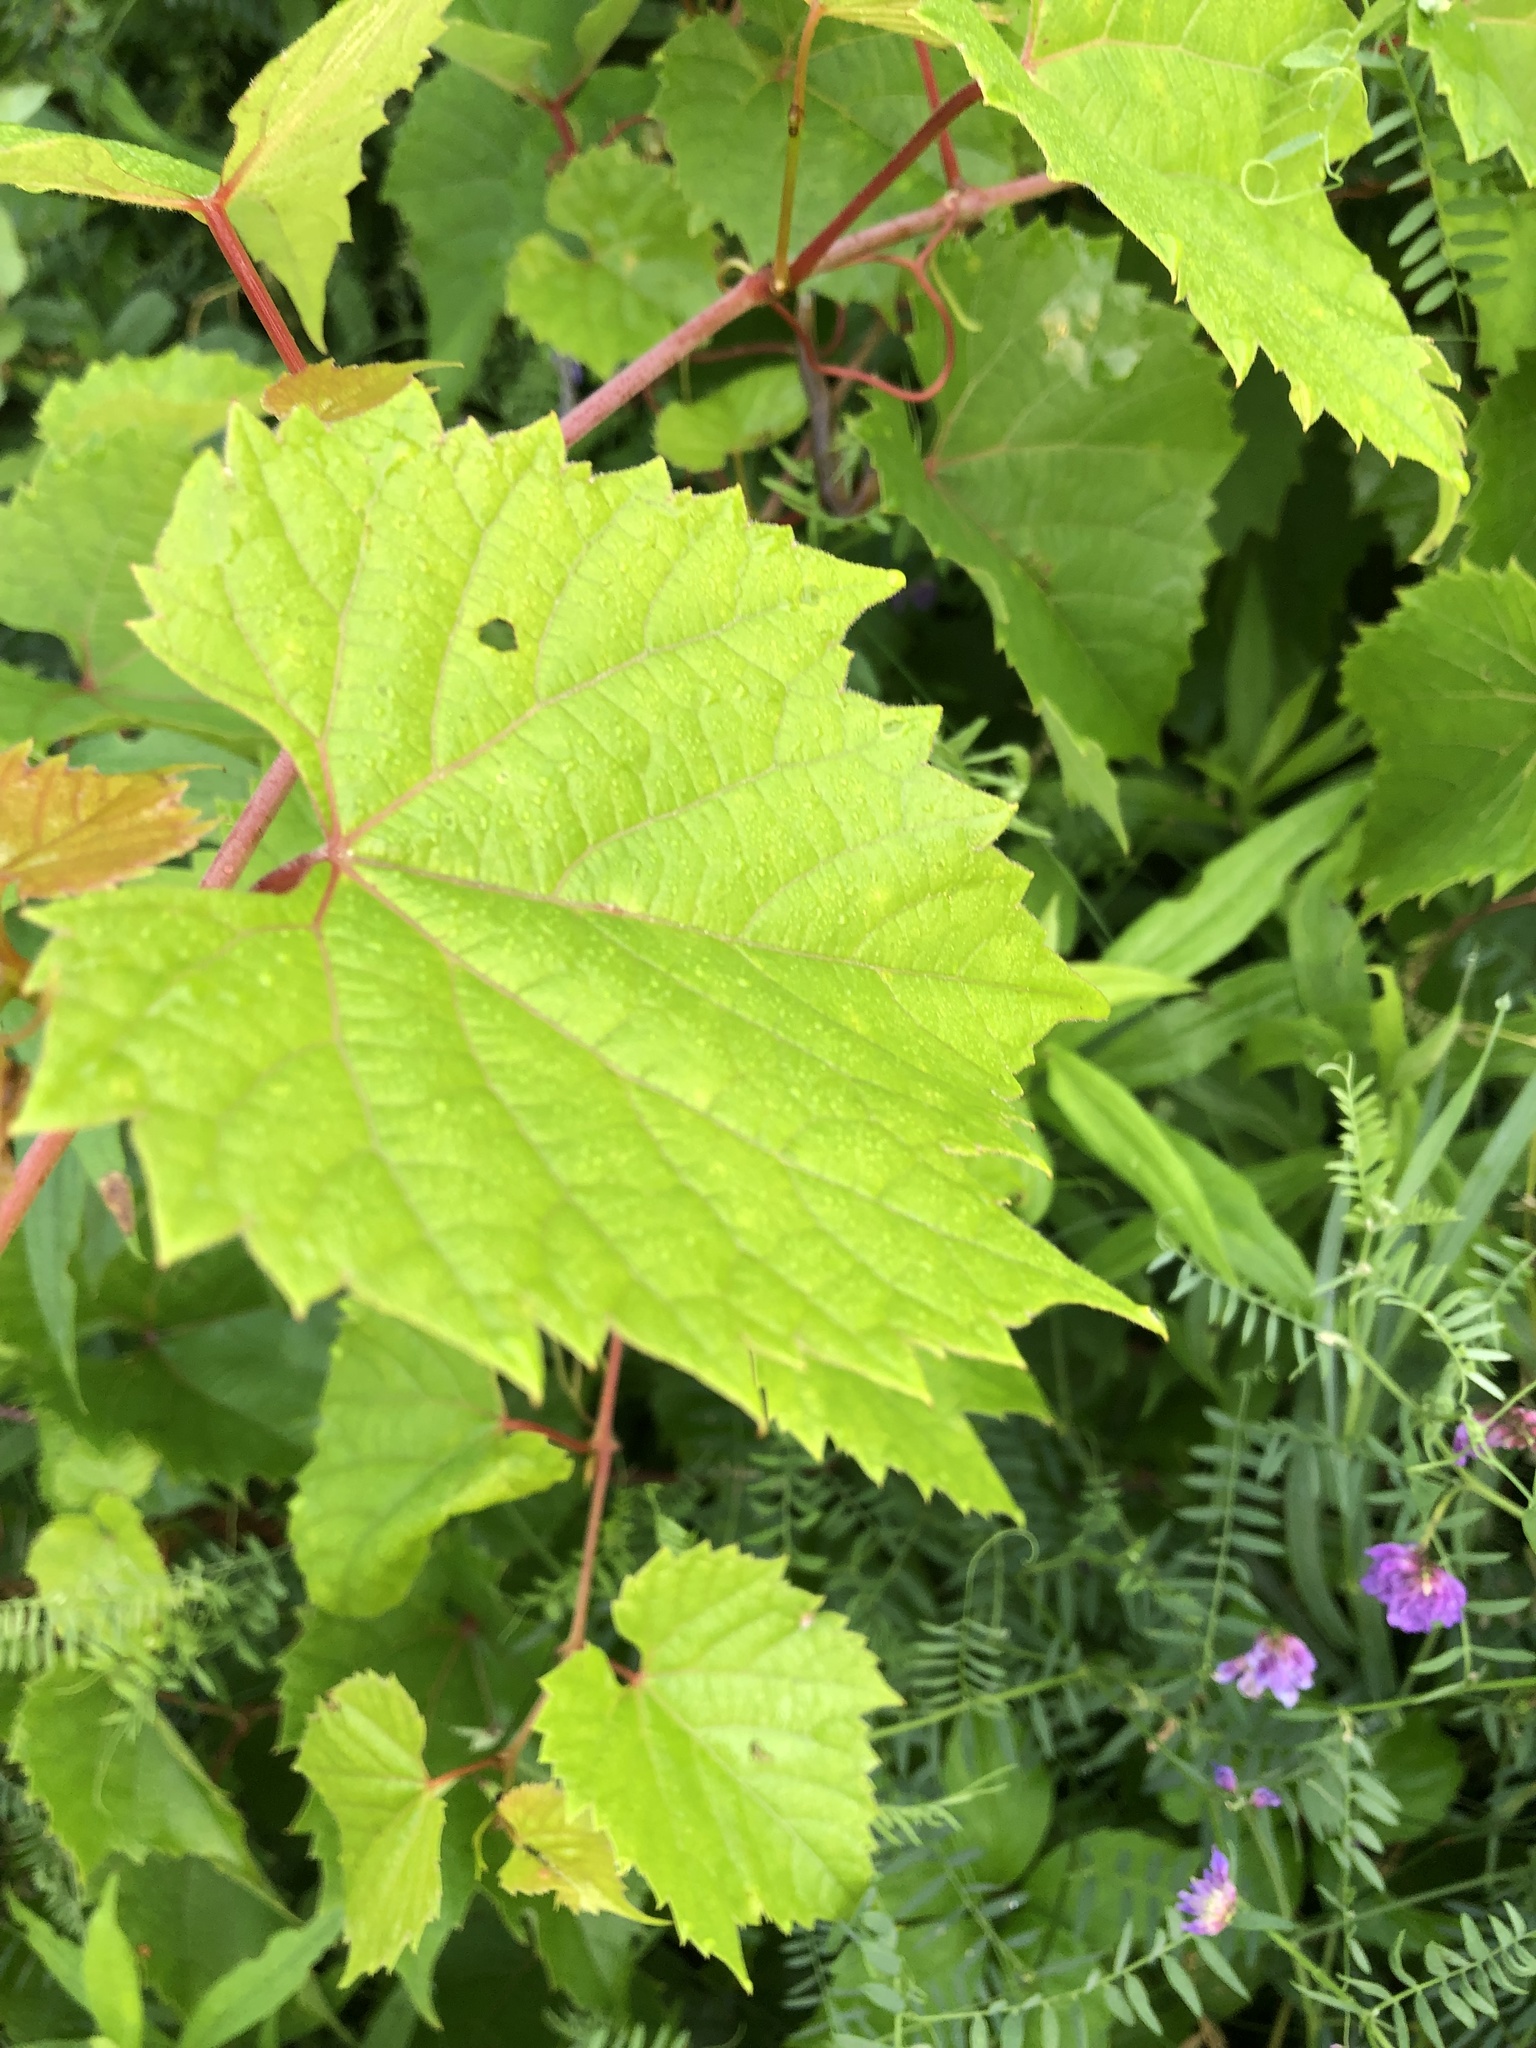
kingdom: Plantae
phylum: Tracheophyta
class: Magnoliopsida
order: Vitales
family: Vitaceae
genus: Vitis
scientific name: Vitis riparia
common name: Frost grape
